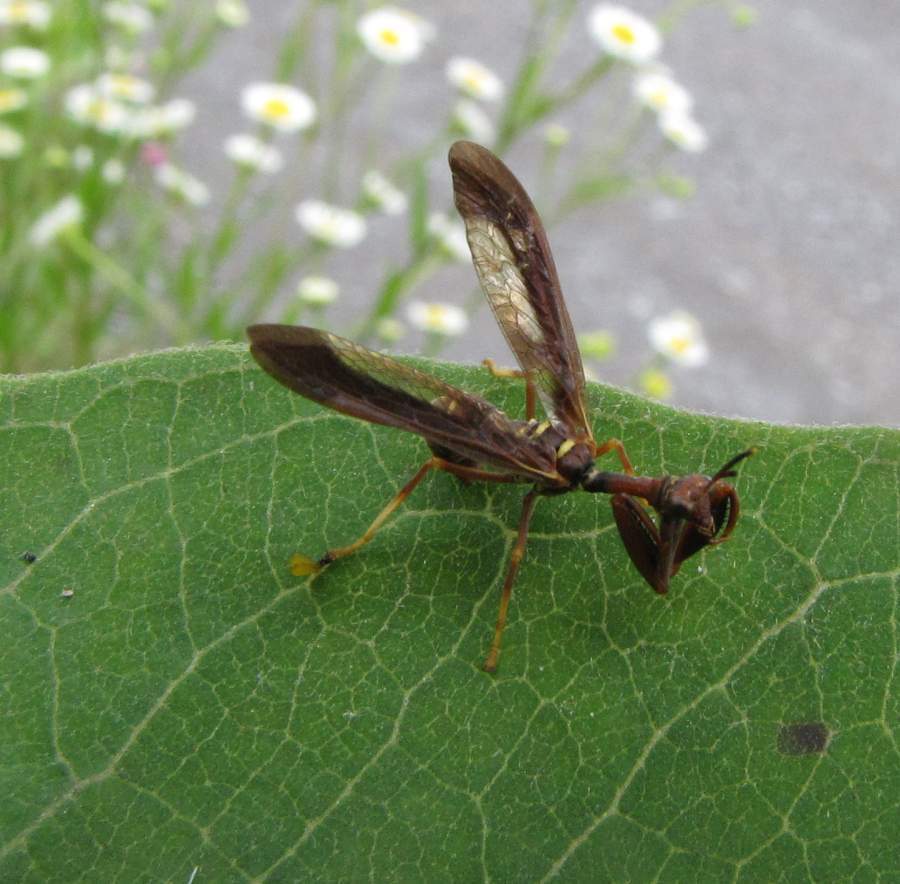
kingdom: Animalia
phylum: Arthropoda
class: Insecta
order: Neuroptera
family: Mantispidae
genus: Climaciella
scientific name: Climaciella brunnea
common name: Brown wasp mantidfly
